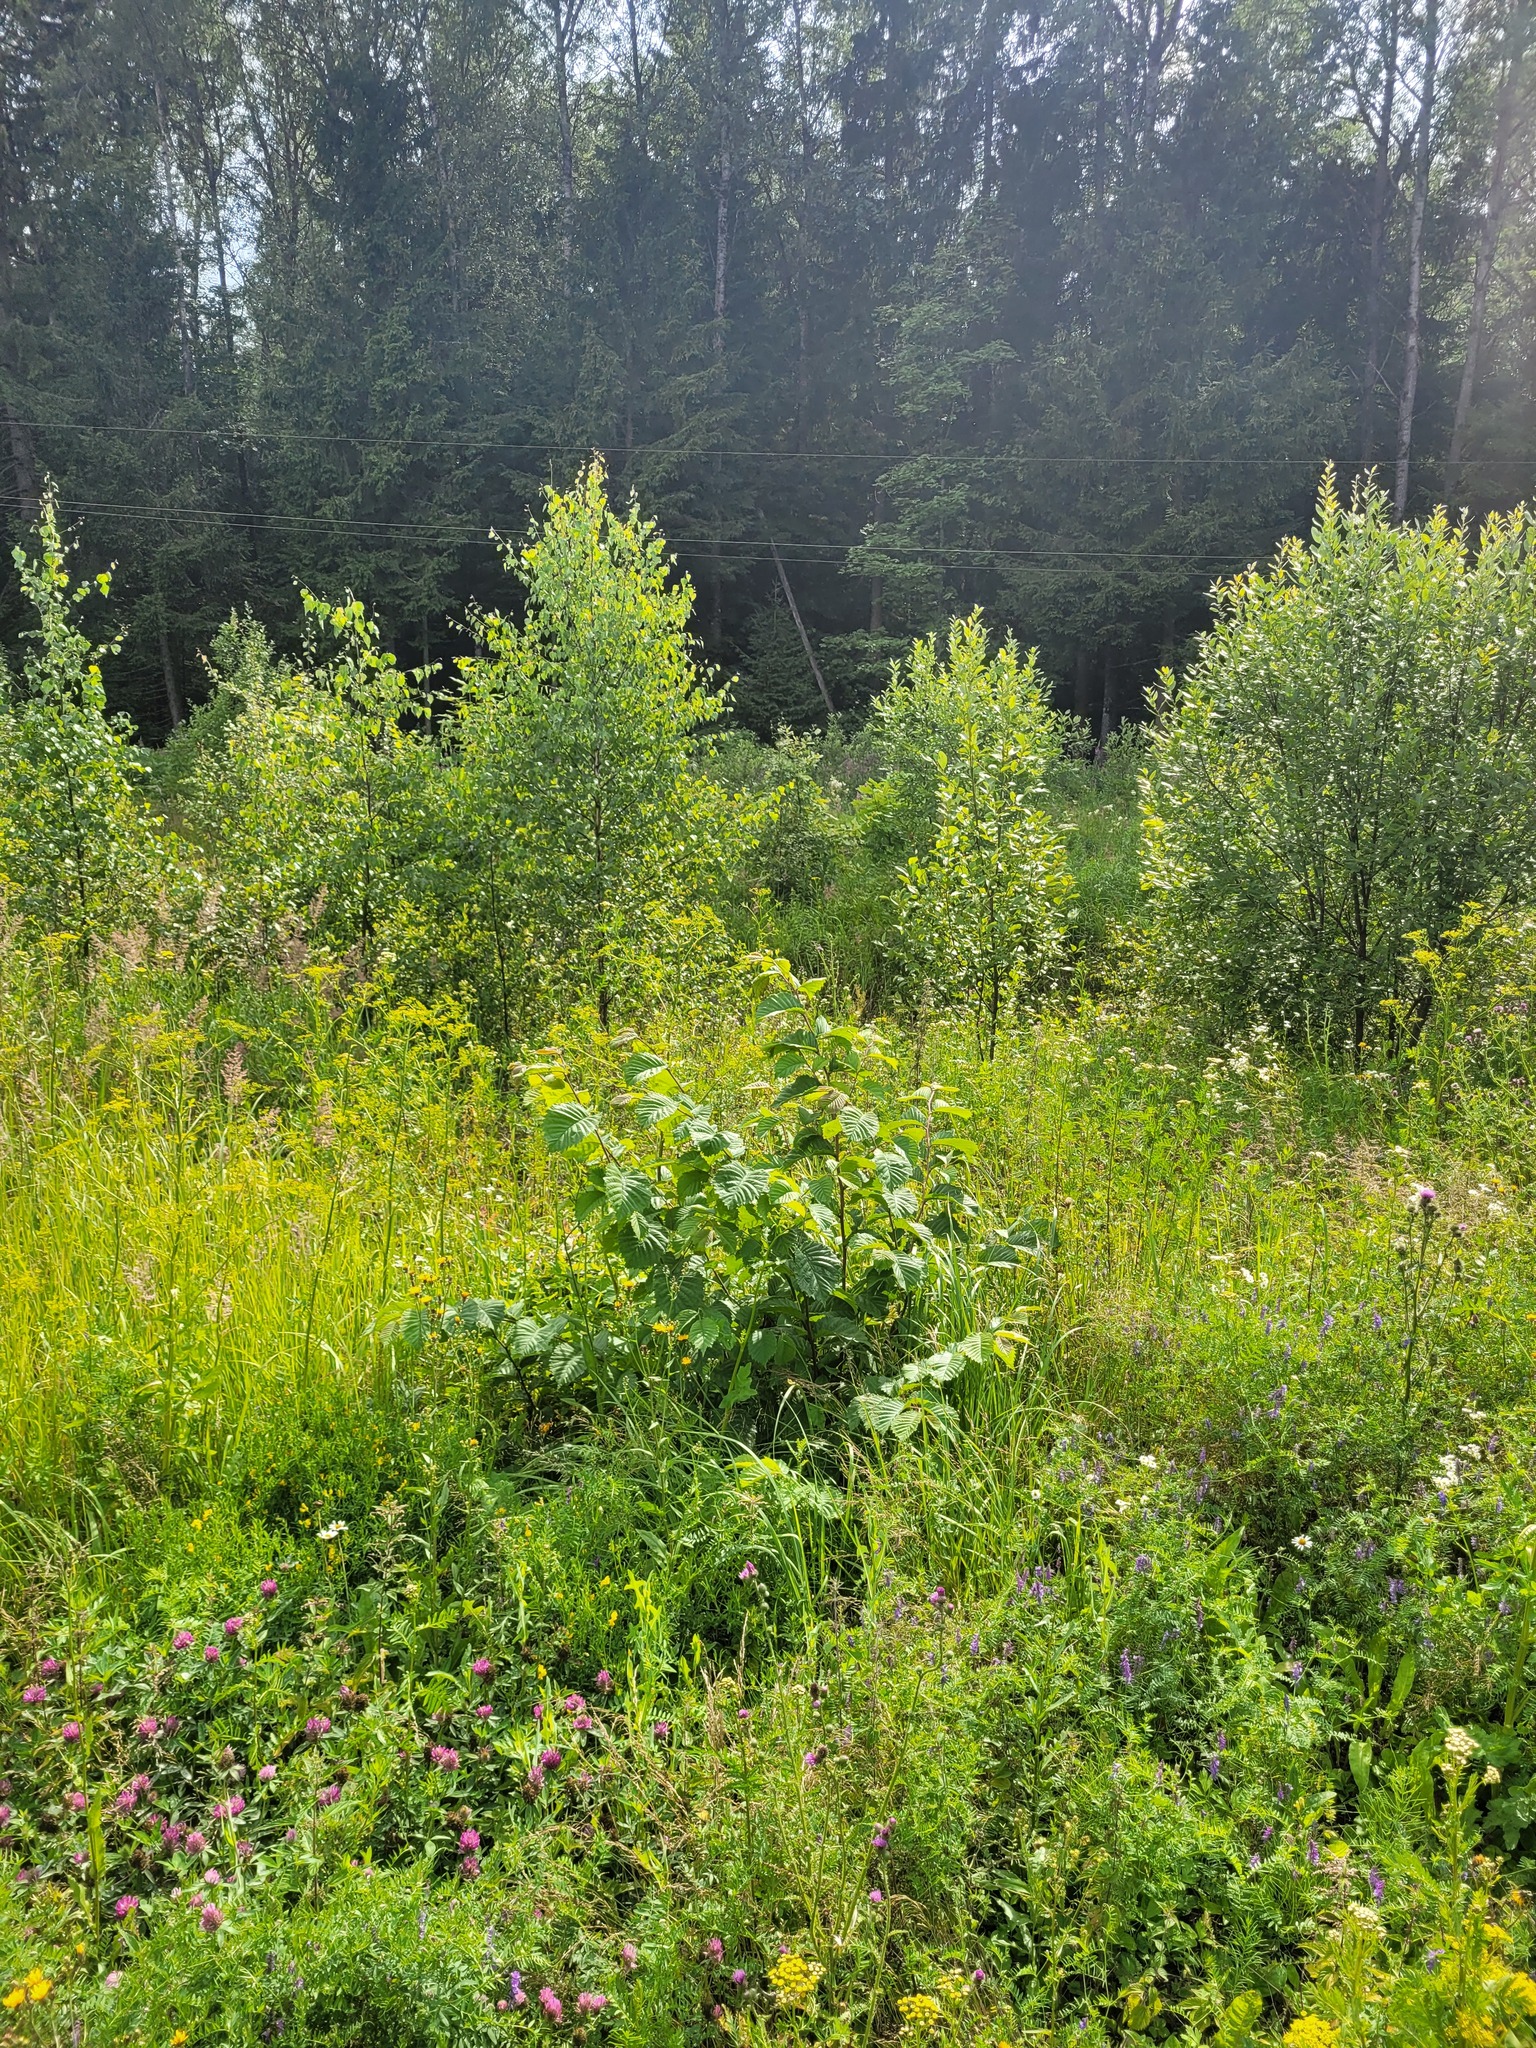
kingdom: Plantae
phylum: Tracheophyta
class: Magnoliopsida
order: Rosales
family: Ulmaceae
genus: Ulmus
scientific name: Ulmus glabra
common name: Wych elm
